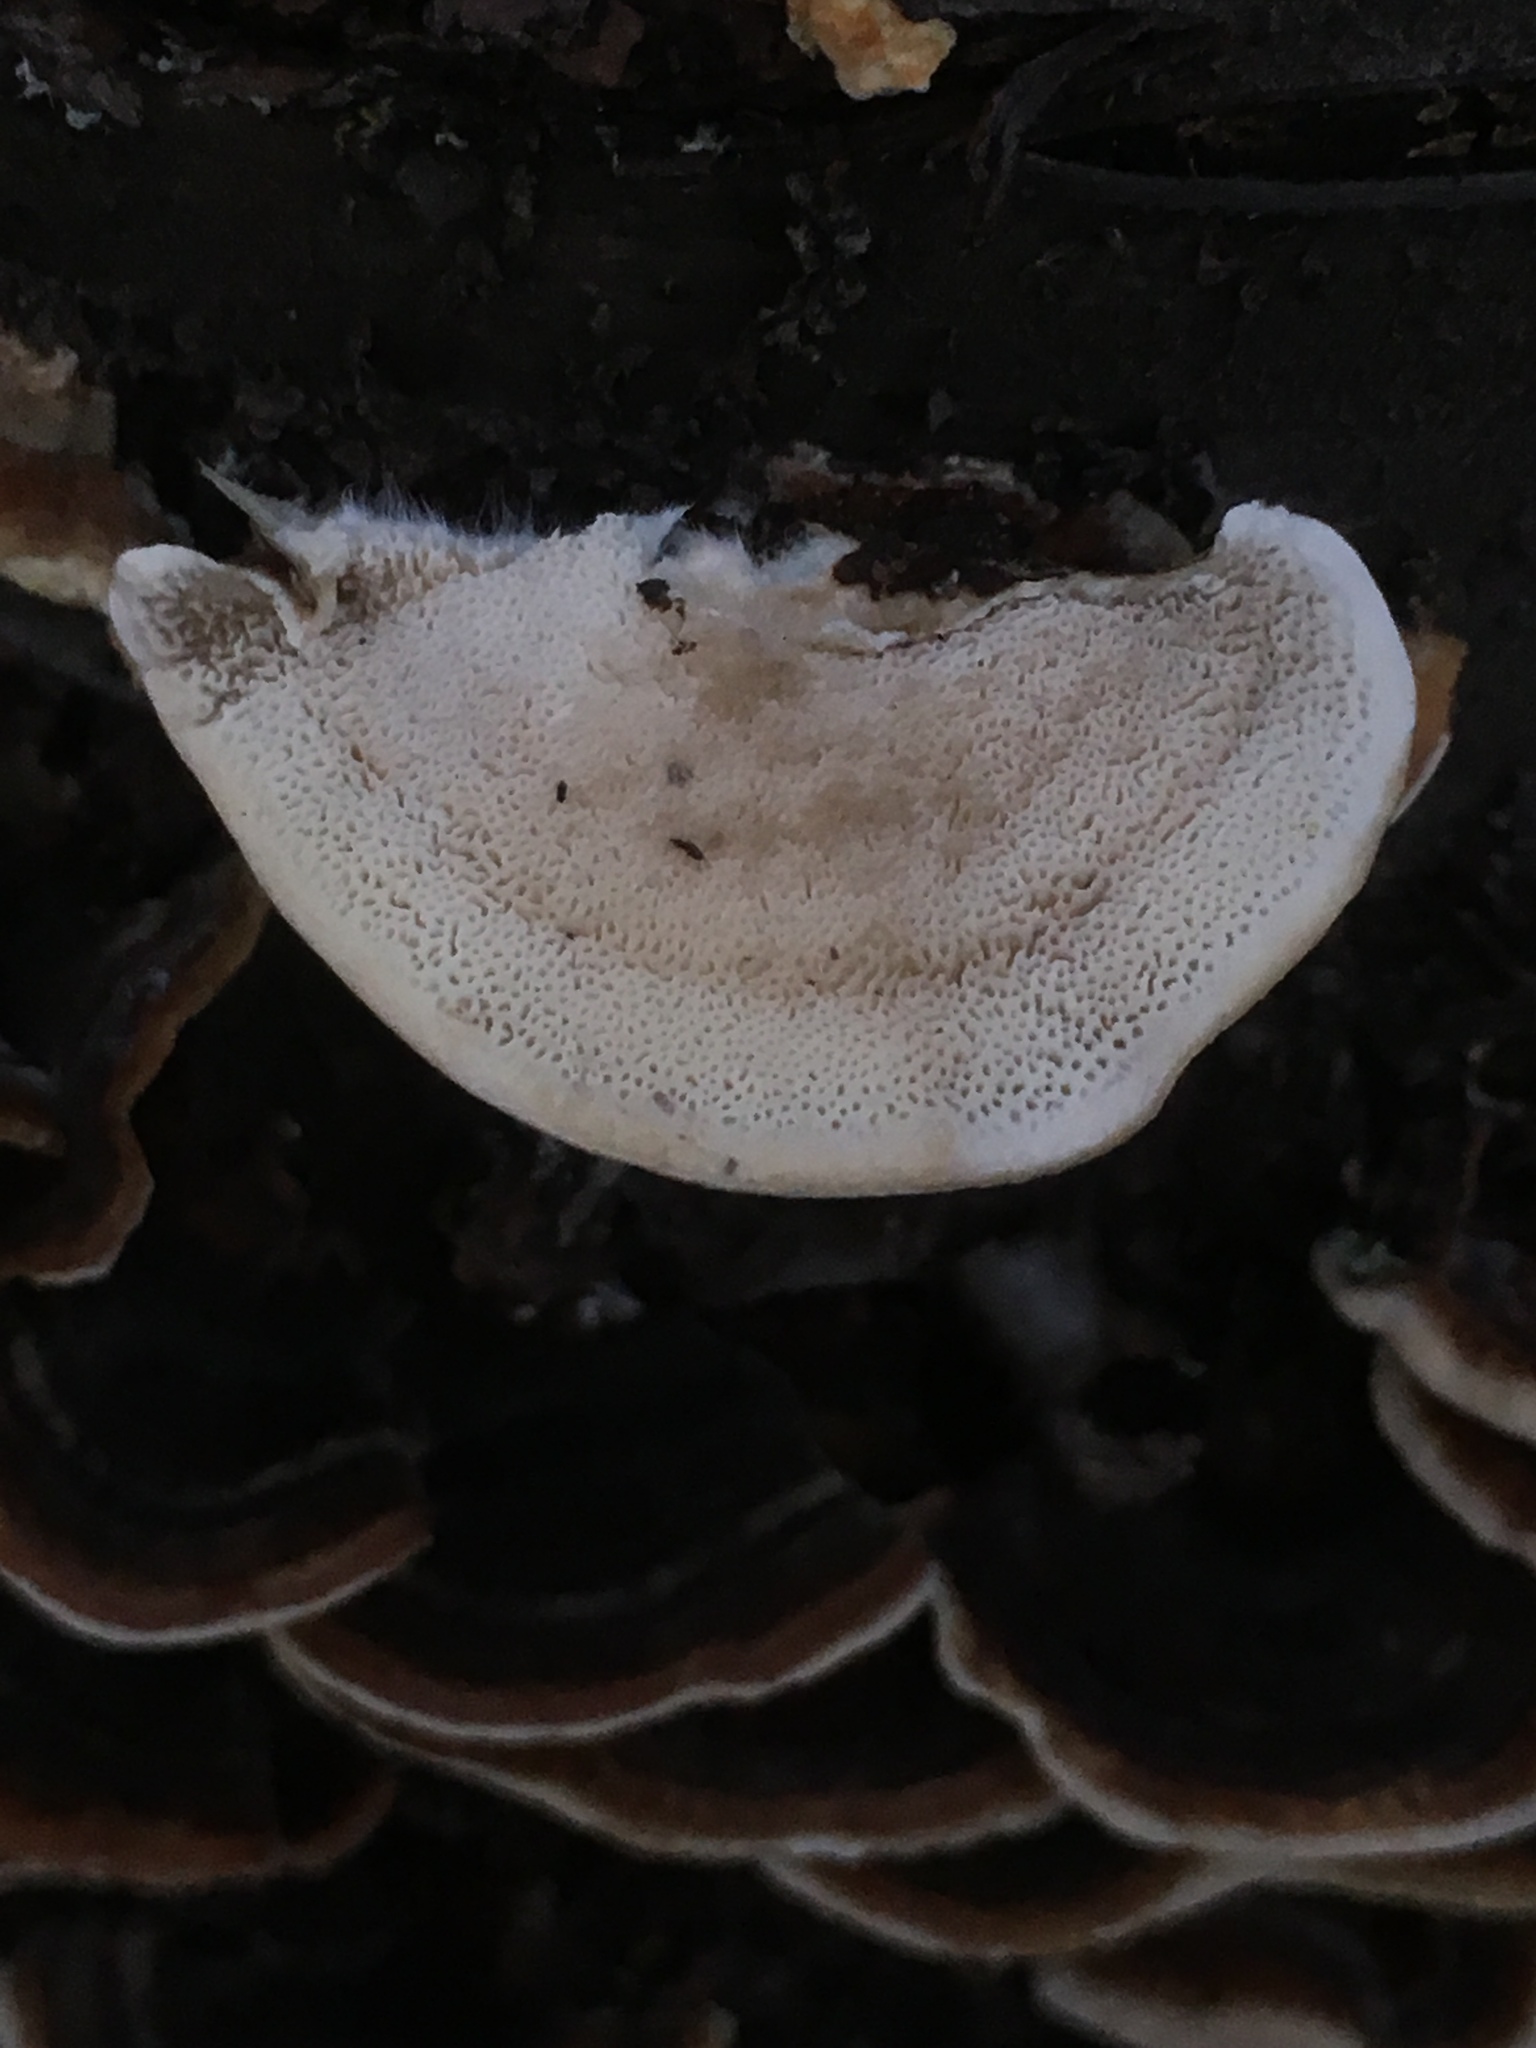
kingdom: Fungi
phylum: Basidiomycota
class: Agaricomycetes
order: Polyporales
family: Polyporaceae
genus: Trametes
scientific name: Trametes versicolor
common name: Turkeytail
